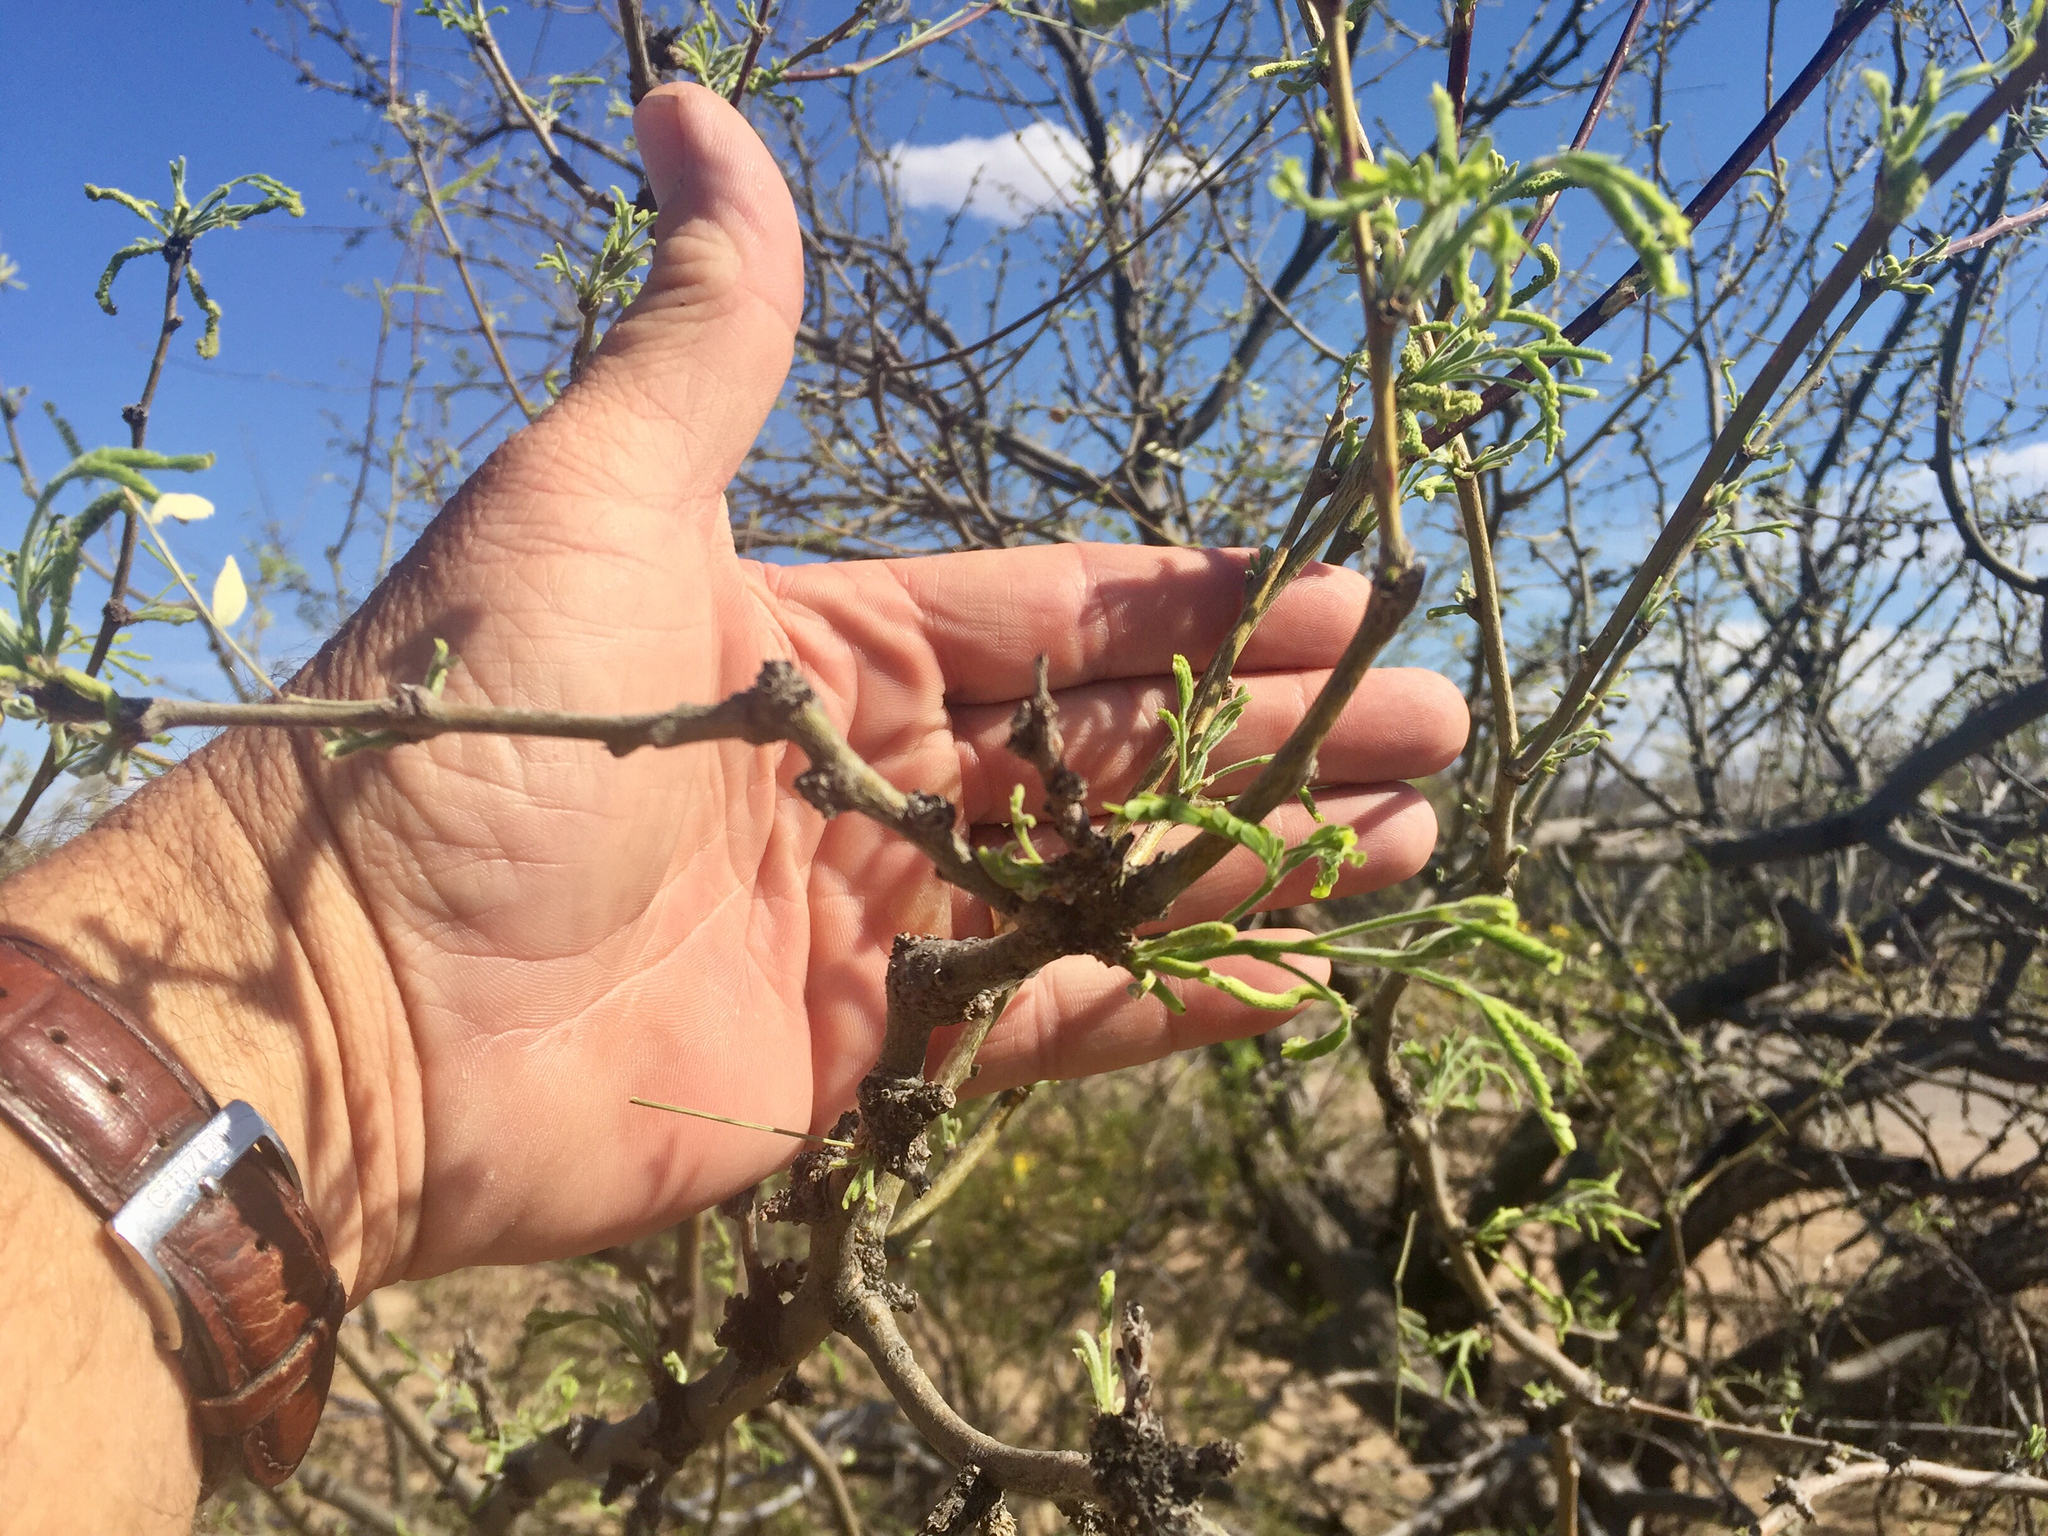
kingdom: Plantae
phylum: Tracheophyta
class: Magnoliopsida
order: Fabales
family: Fabaceae
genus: Prosopis
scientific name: Prosopis velutina
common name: Velvet mesquite
